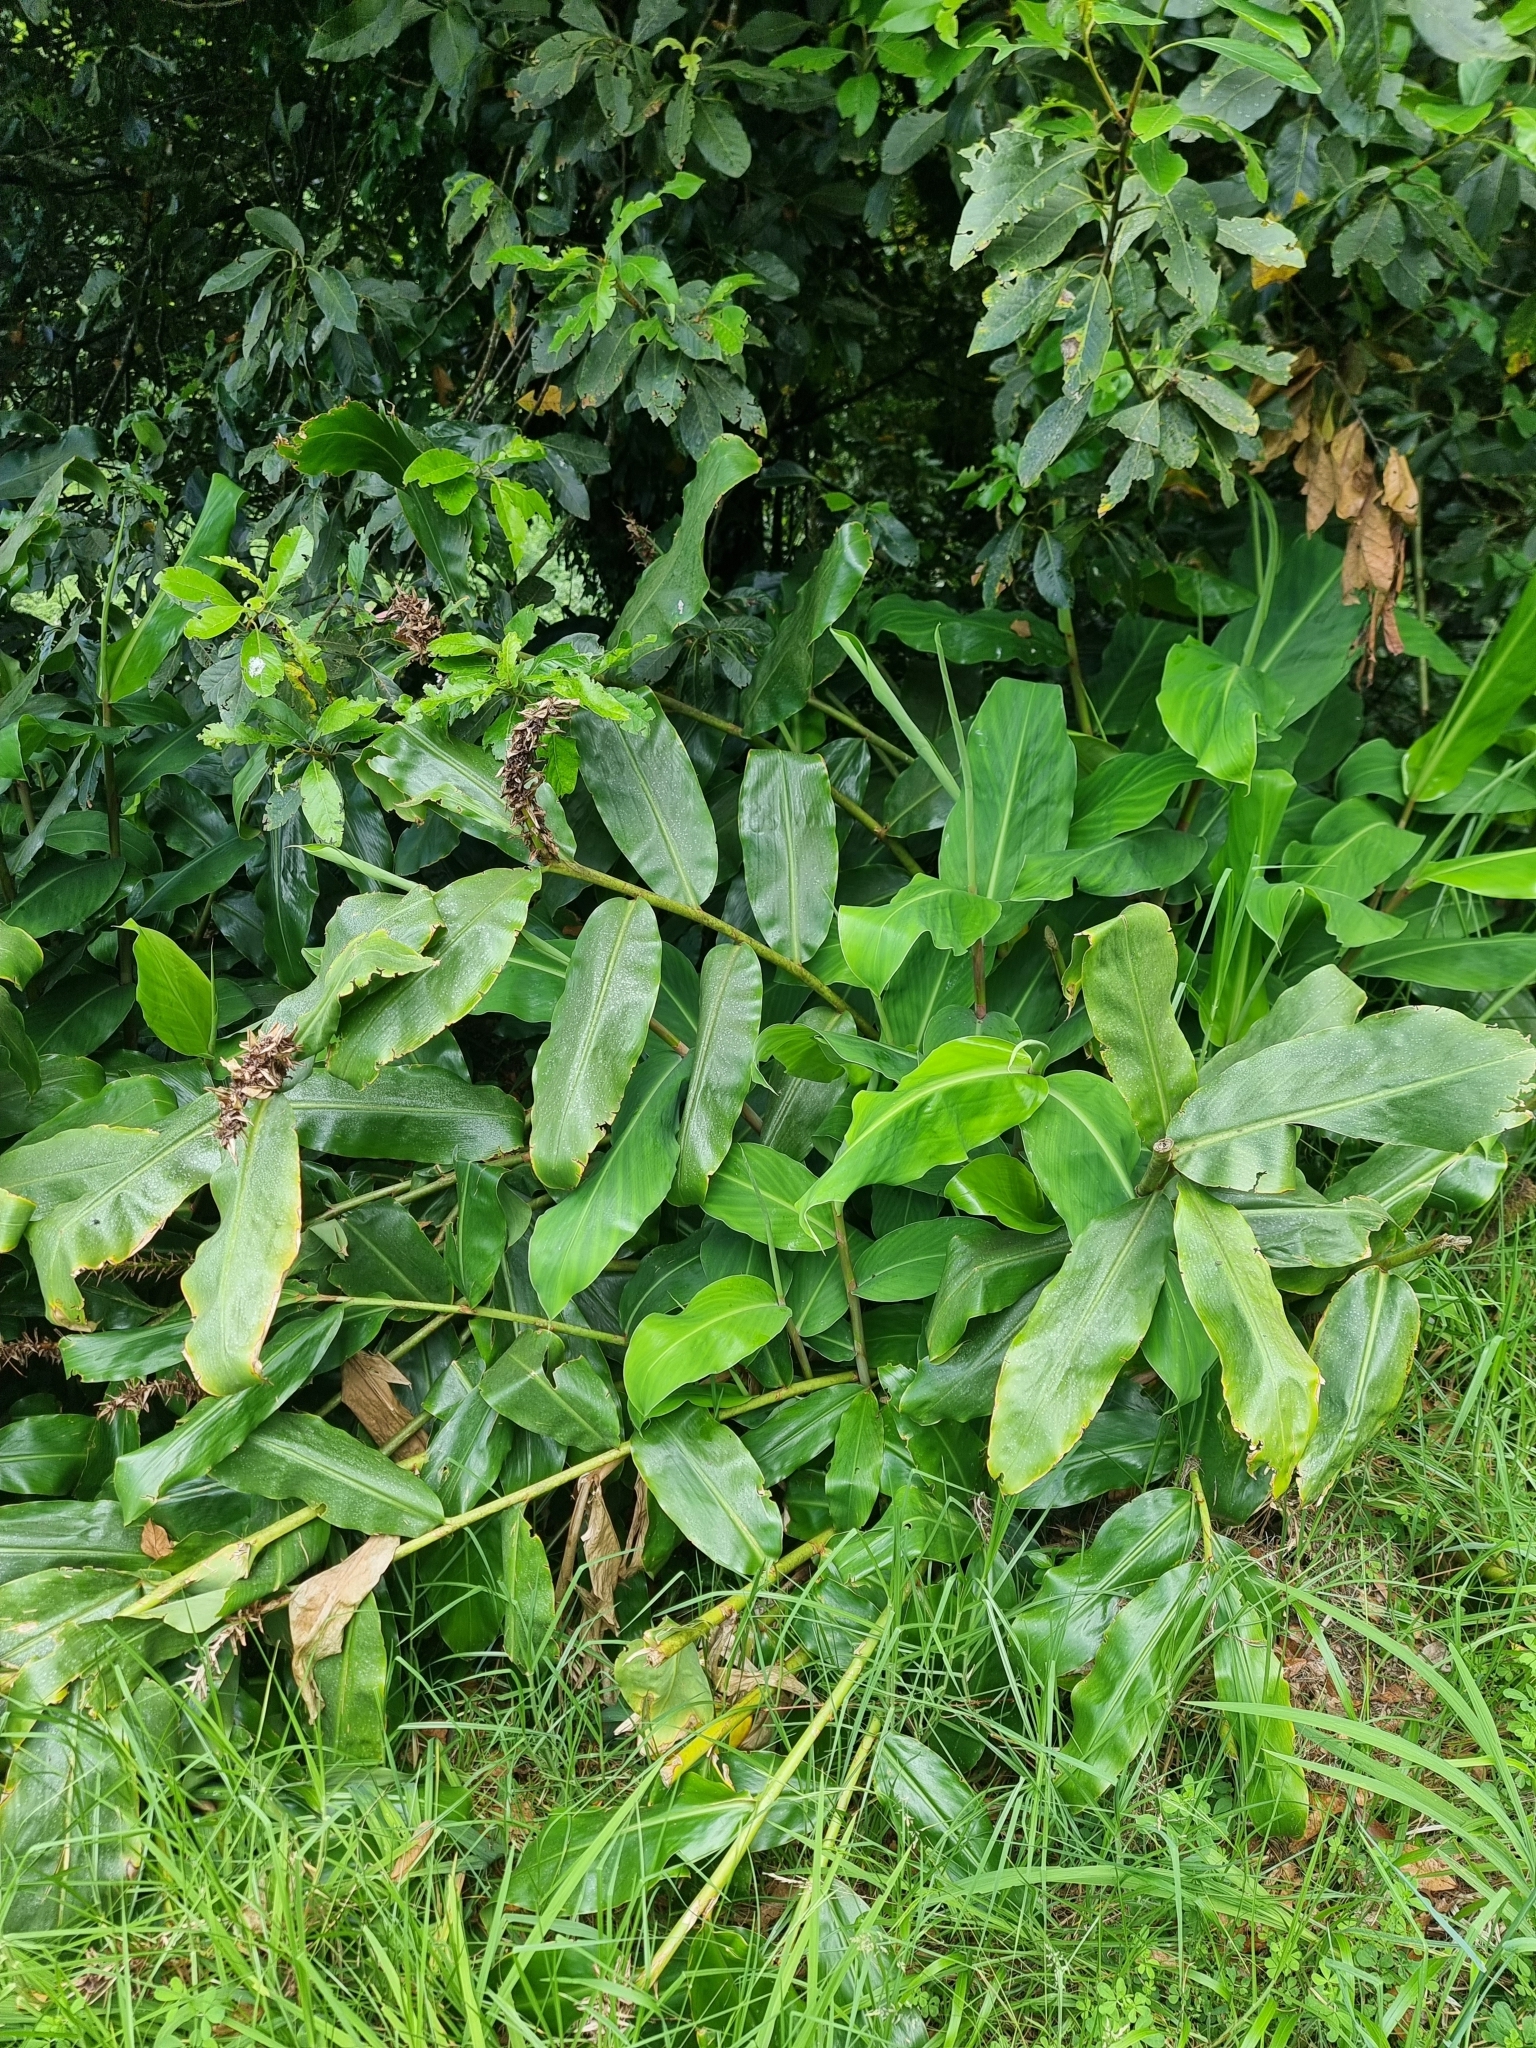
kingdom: Plantae
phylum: Tracheophyta
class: Liliopsida
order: Zingiberales
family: Zingiberaceae
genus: Hedychium
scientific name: Hedychium gardnerianum
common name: Himalayan ginger
